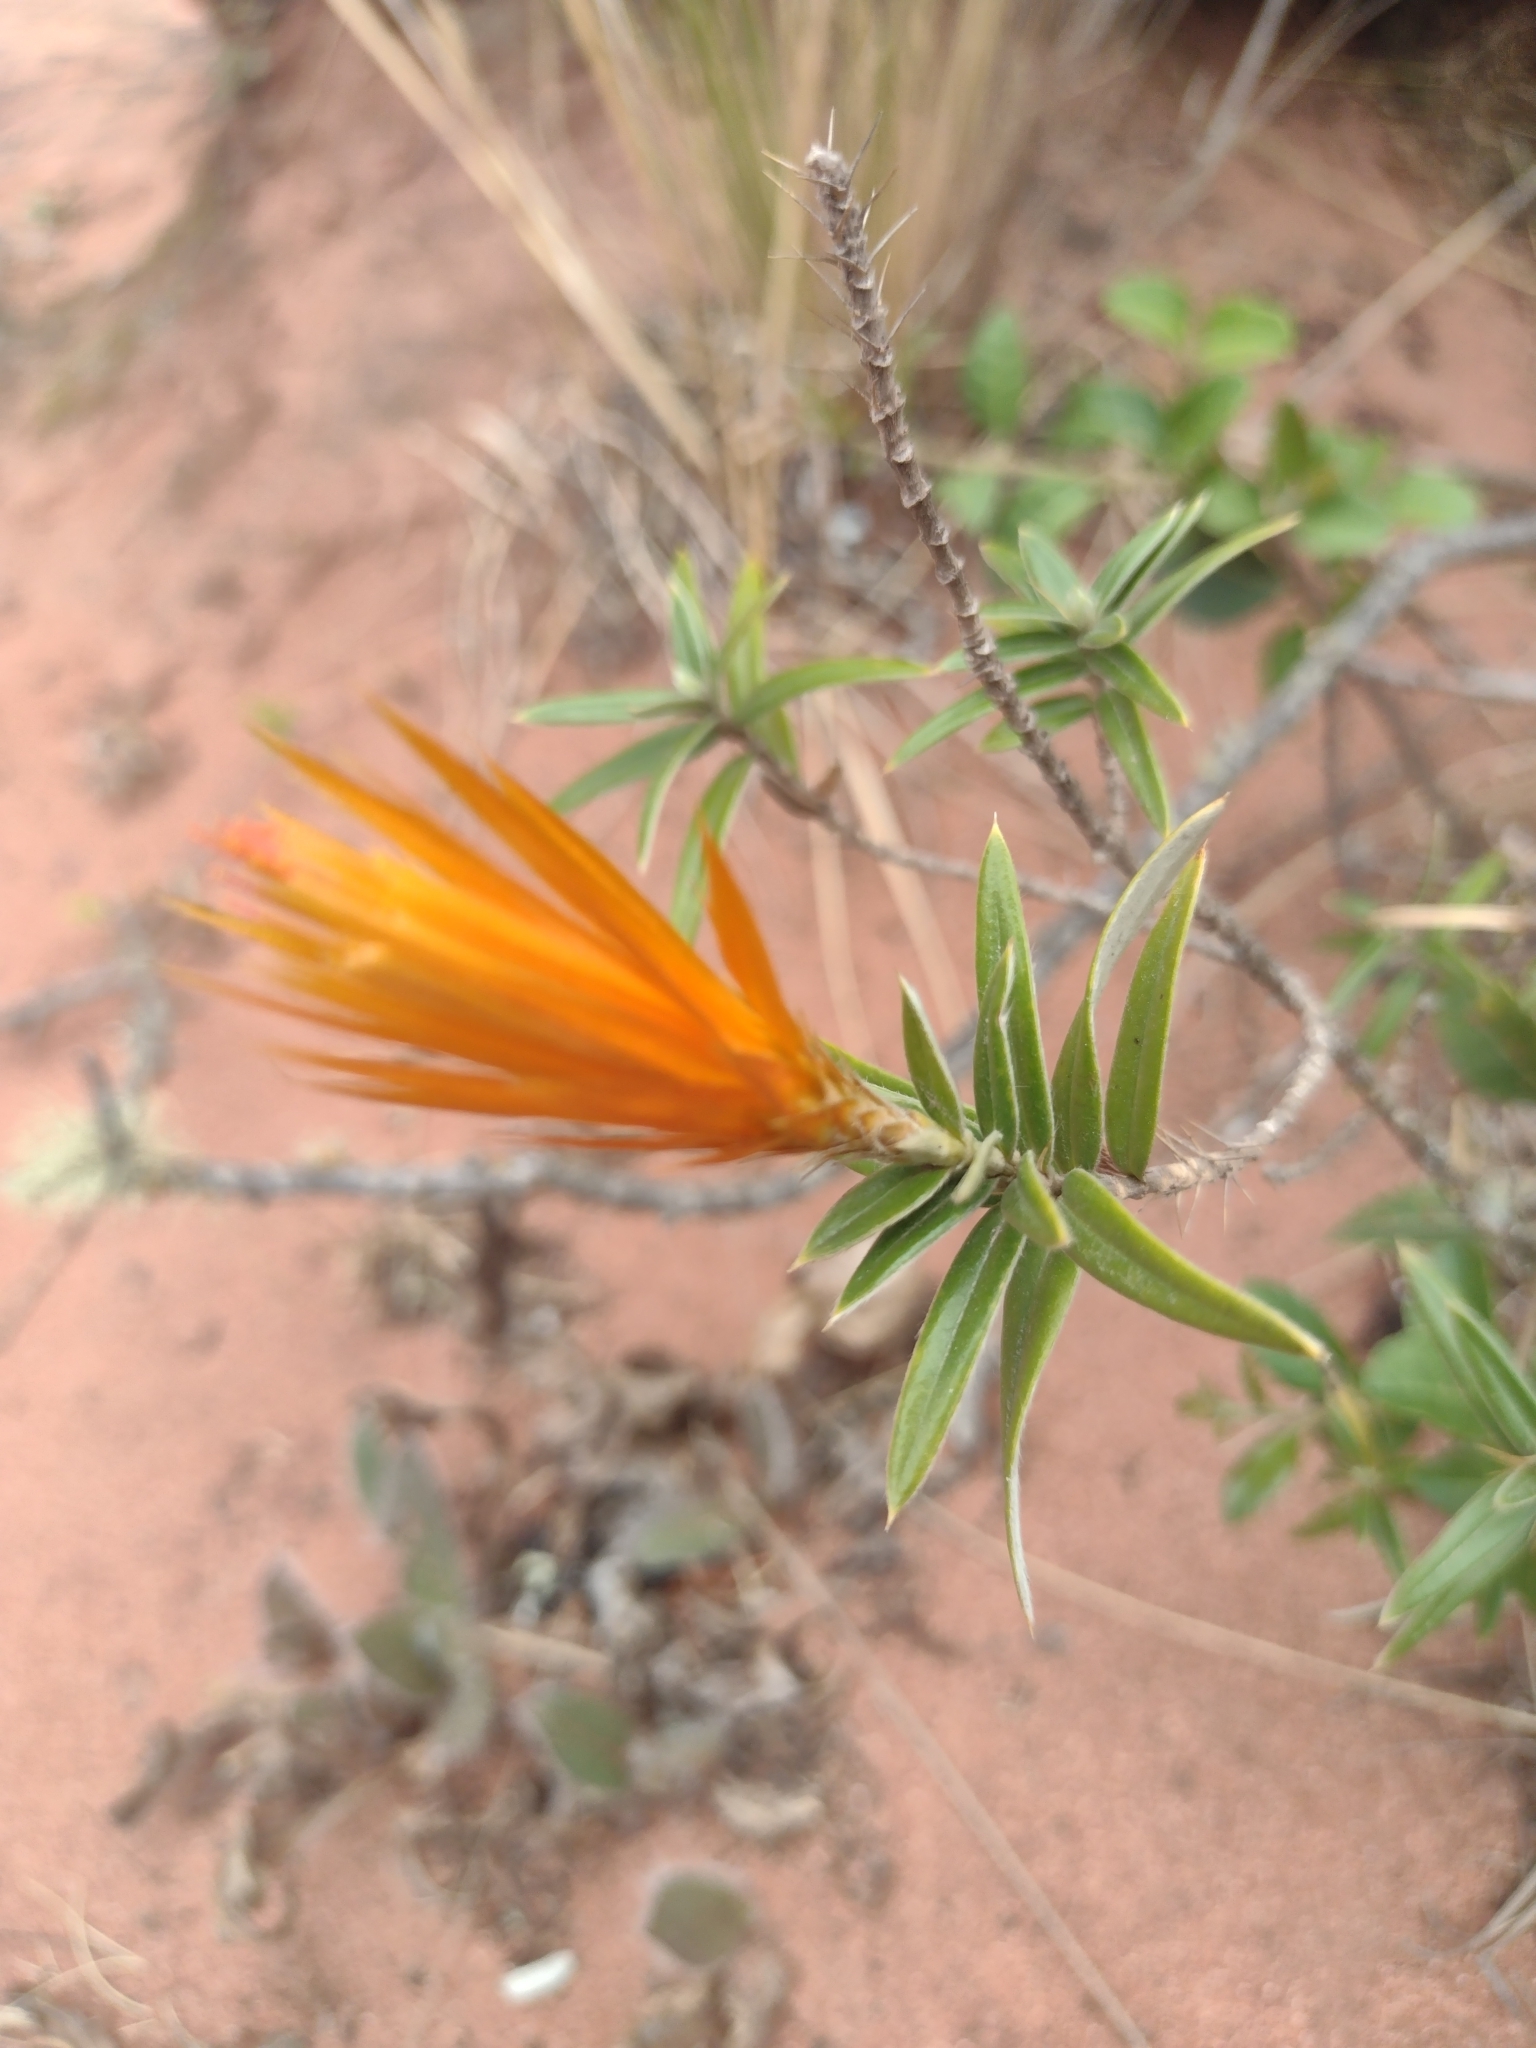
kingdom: Plantae
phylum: Tracheophyta
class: Magnoliopsida
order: Asterales
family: Asteraceae
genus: Chuquiraga
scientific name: Chuquiraga longiflora
